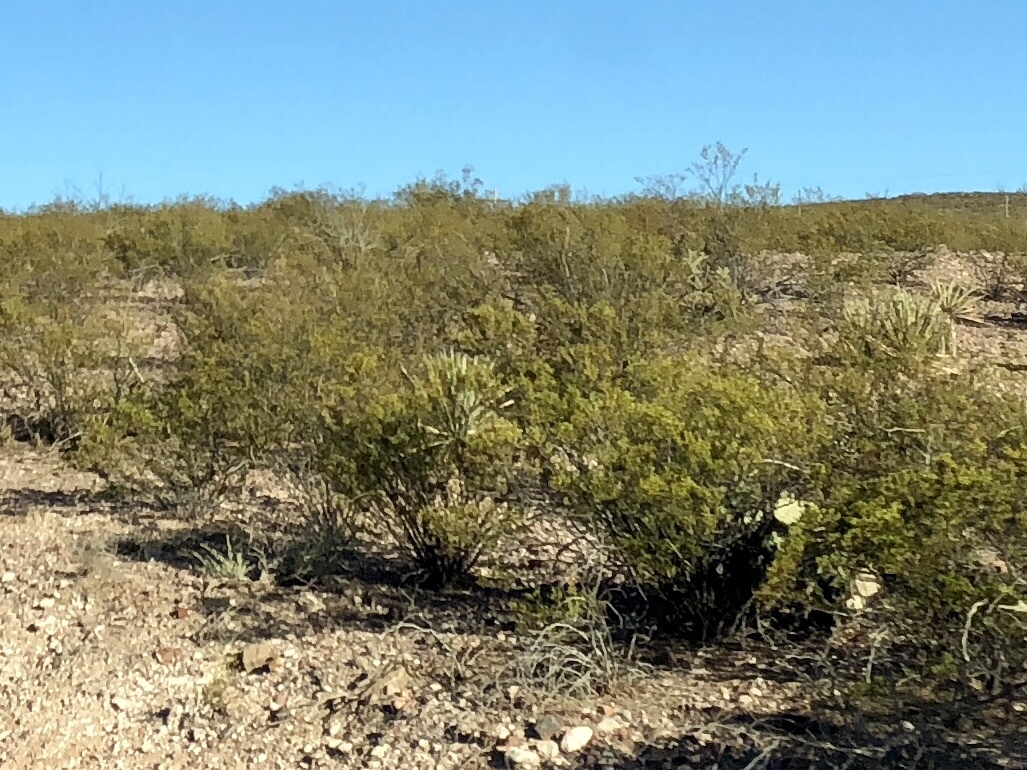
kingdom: Plantae
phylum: Tracheophyta
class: Magnoliopsida
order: Zygophyllales
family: Zygophyllaceae
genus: Larrea
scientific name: Larrea tridentata
